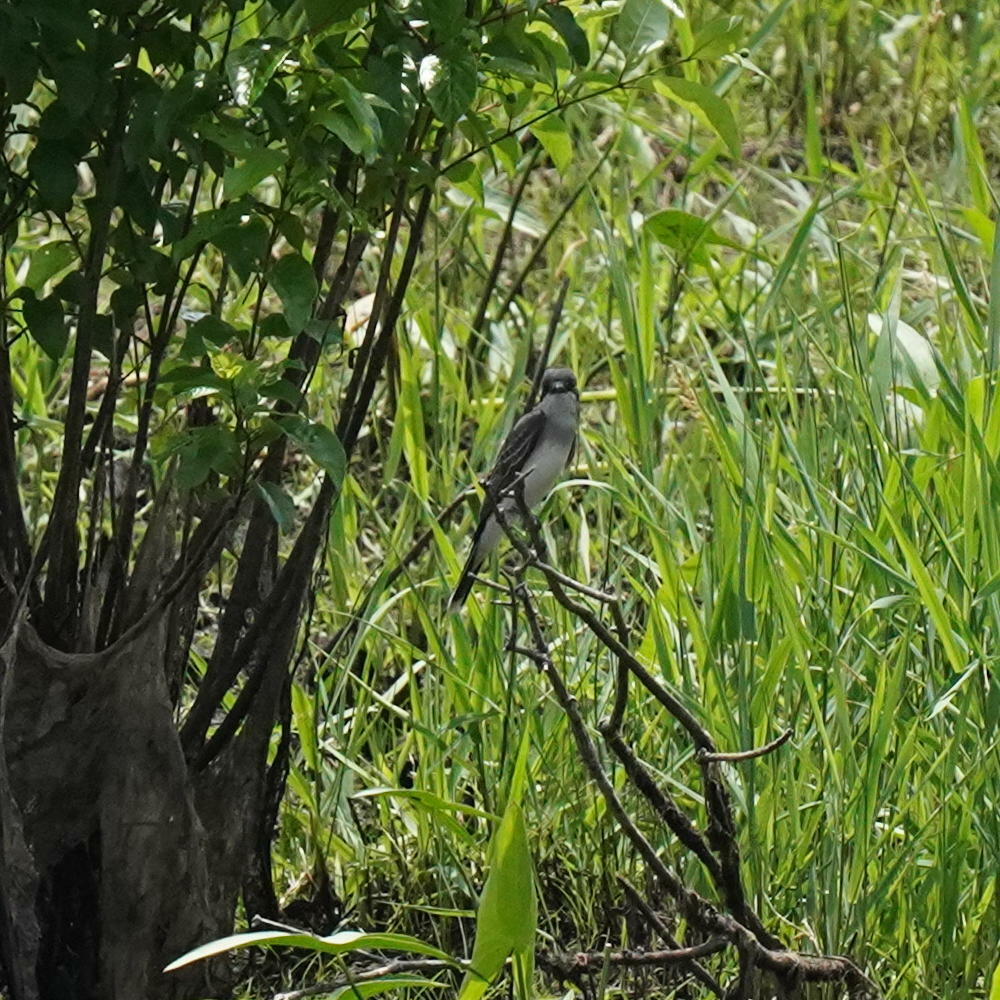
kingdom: Animalia
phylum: Chordata
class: Aves
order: Passeriformes
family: Tyrannidae
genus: Tyrannus
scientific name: Tyrannus tyrannus
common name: Eastern kingbird
